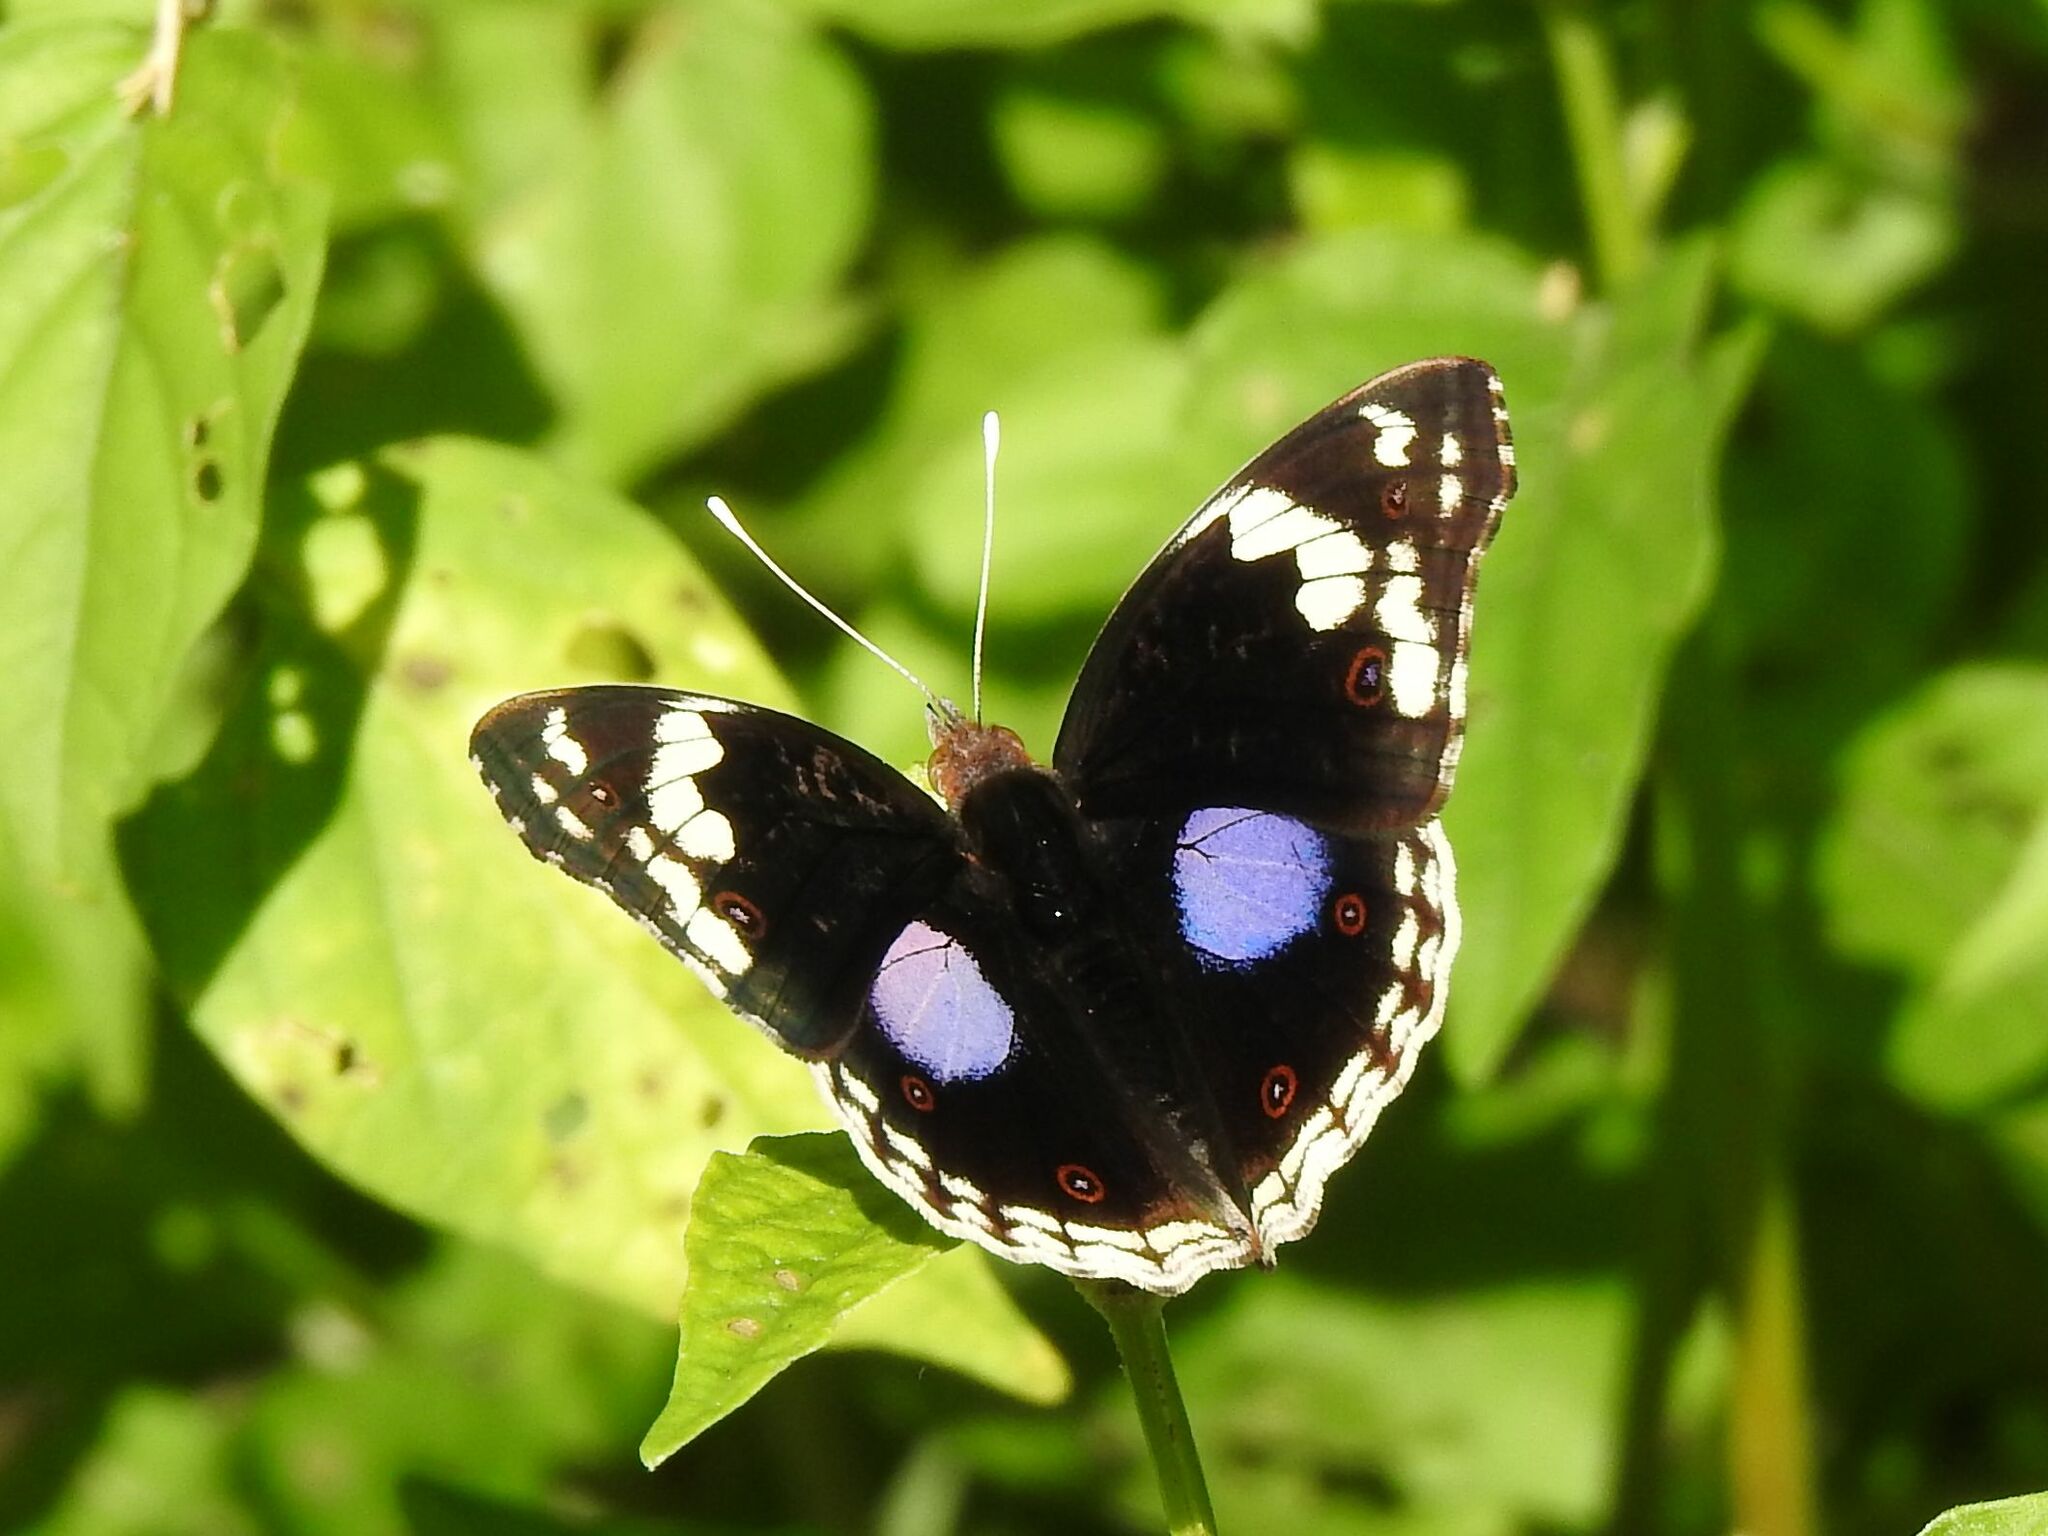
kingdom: Animalia
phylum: Arthropoda
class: Insecta
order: Lepidoptera
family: Nymphalidae
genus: Junonia
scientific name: Junonia oenone
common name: Dark blue pansy
